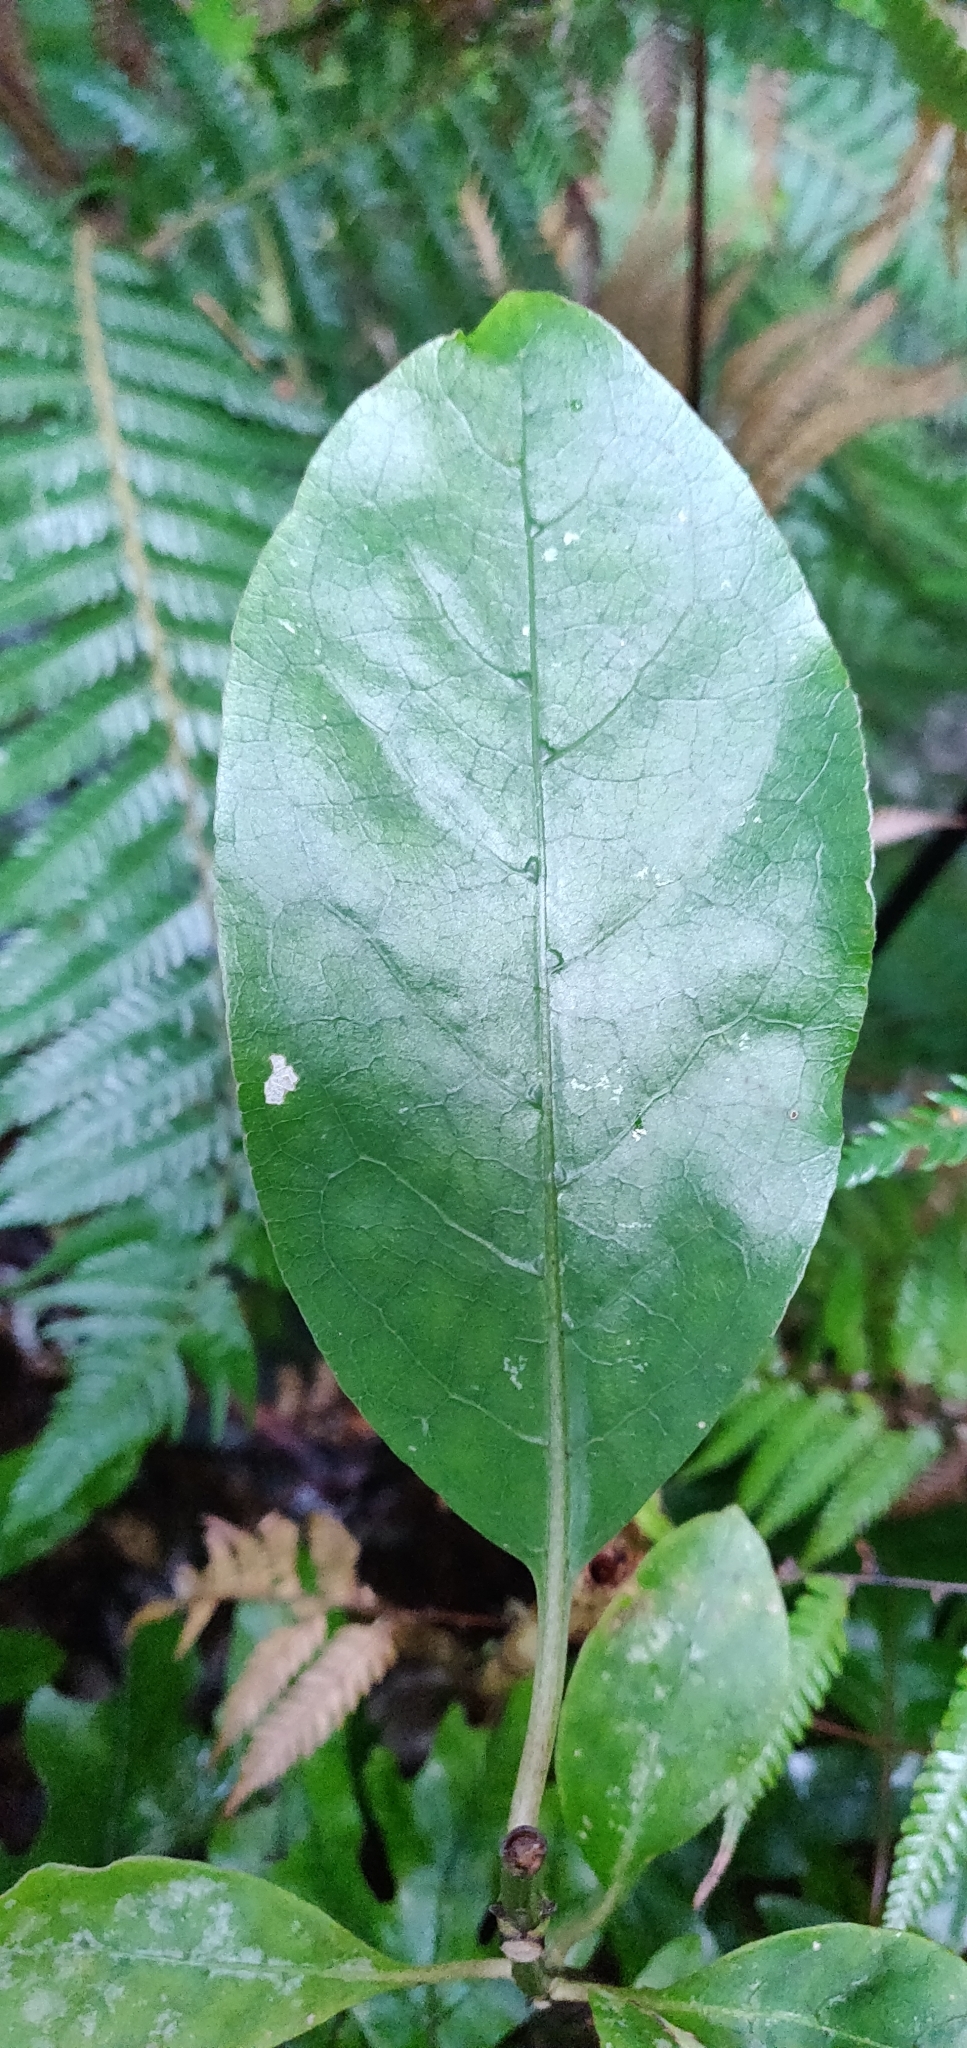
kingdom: Plantae
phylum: Tracheophyta
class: Magnoliopsida
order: Gentianales
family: Rubiaceae
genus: Coprosma
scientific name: Coprosma autumnalis
